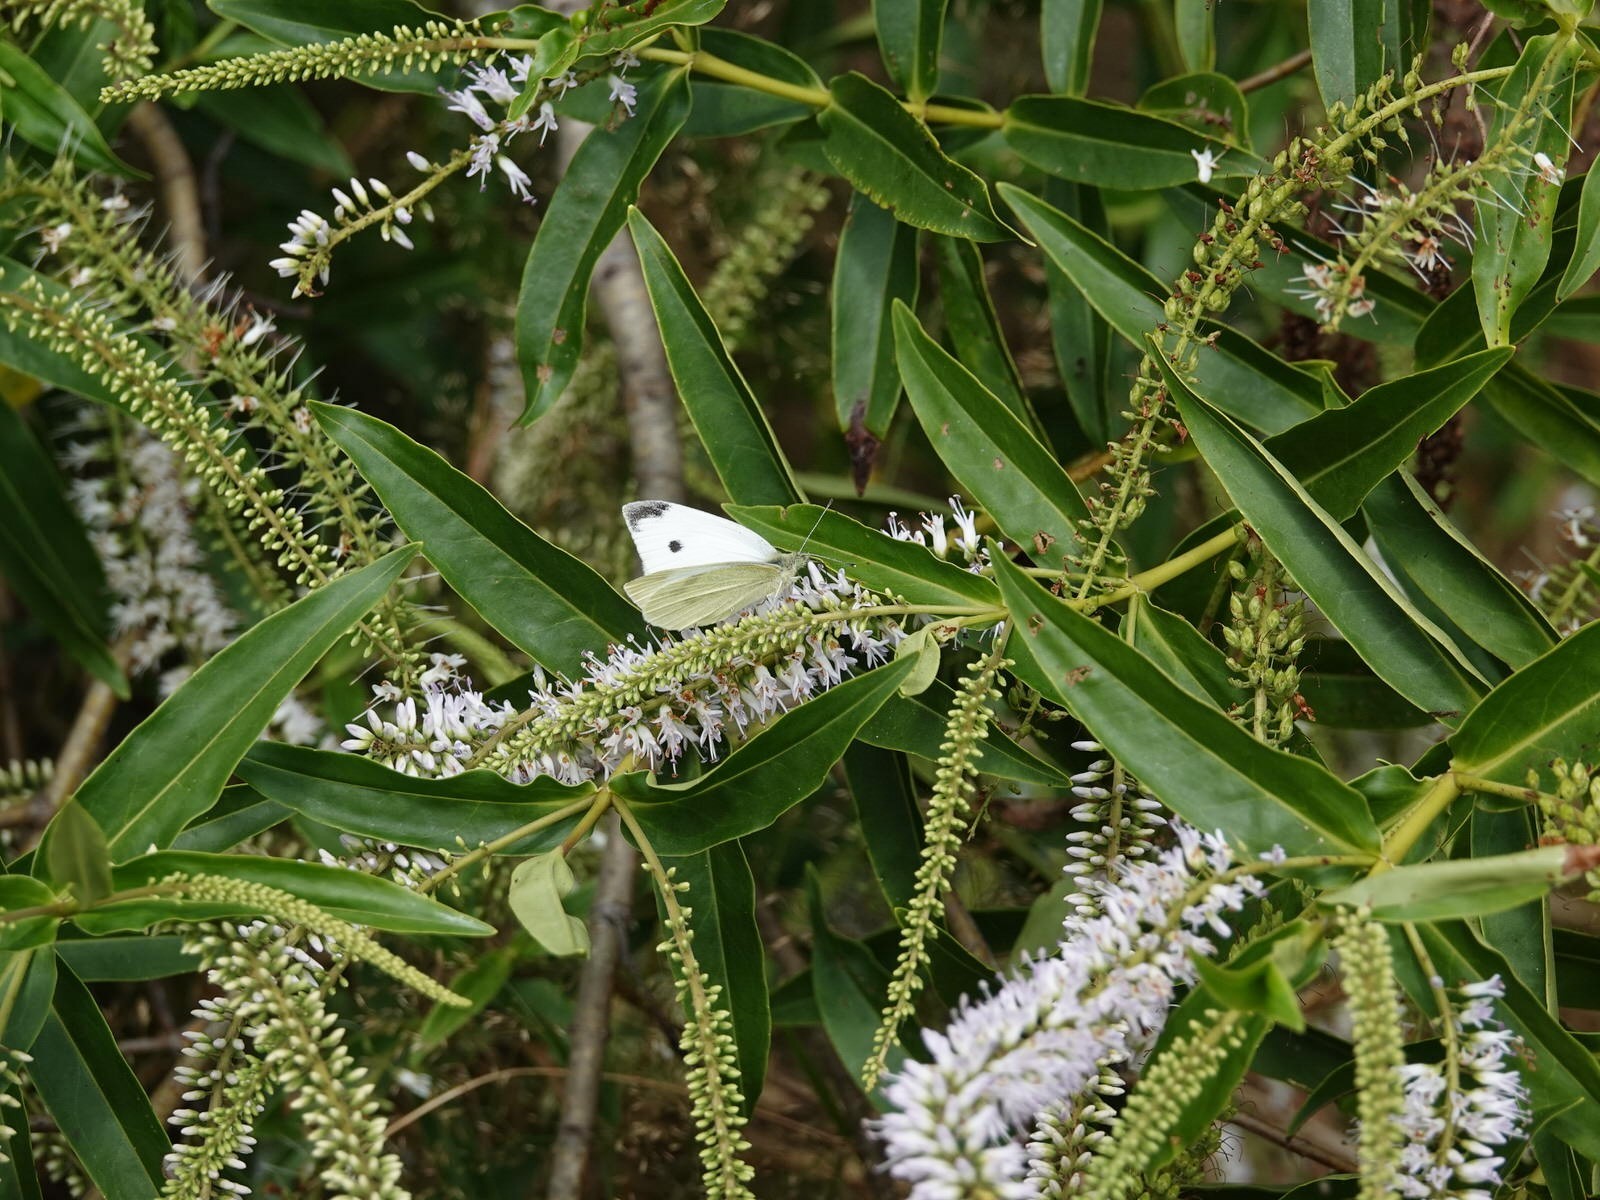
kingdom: Plantae
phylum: Tracheophyta
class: Magnoliopsida
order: Lamiales
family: Plantaginaceae
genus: Veronica
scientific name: Veronica stricta
